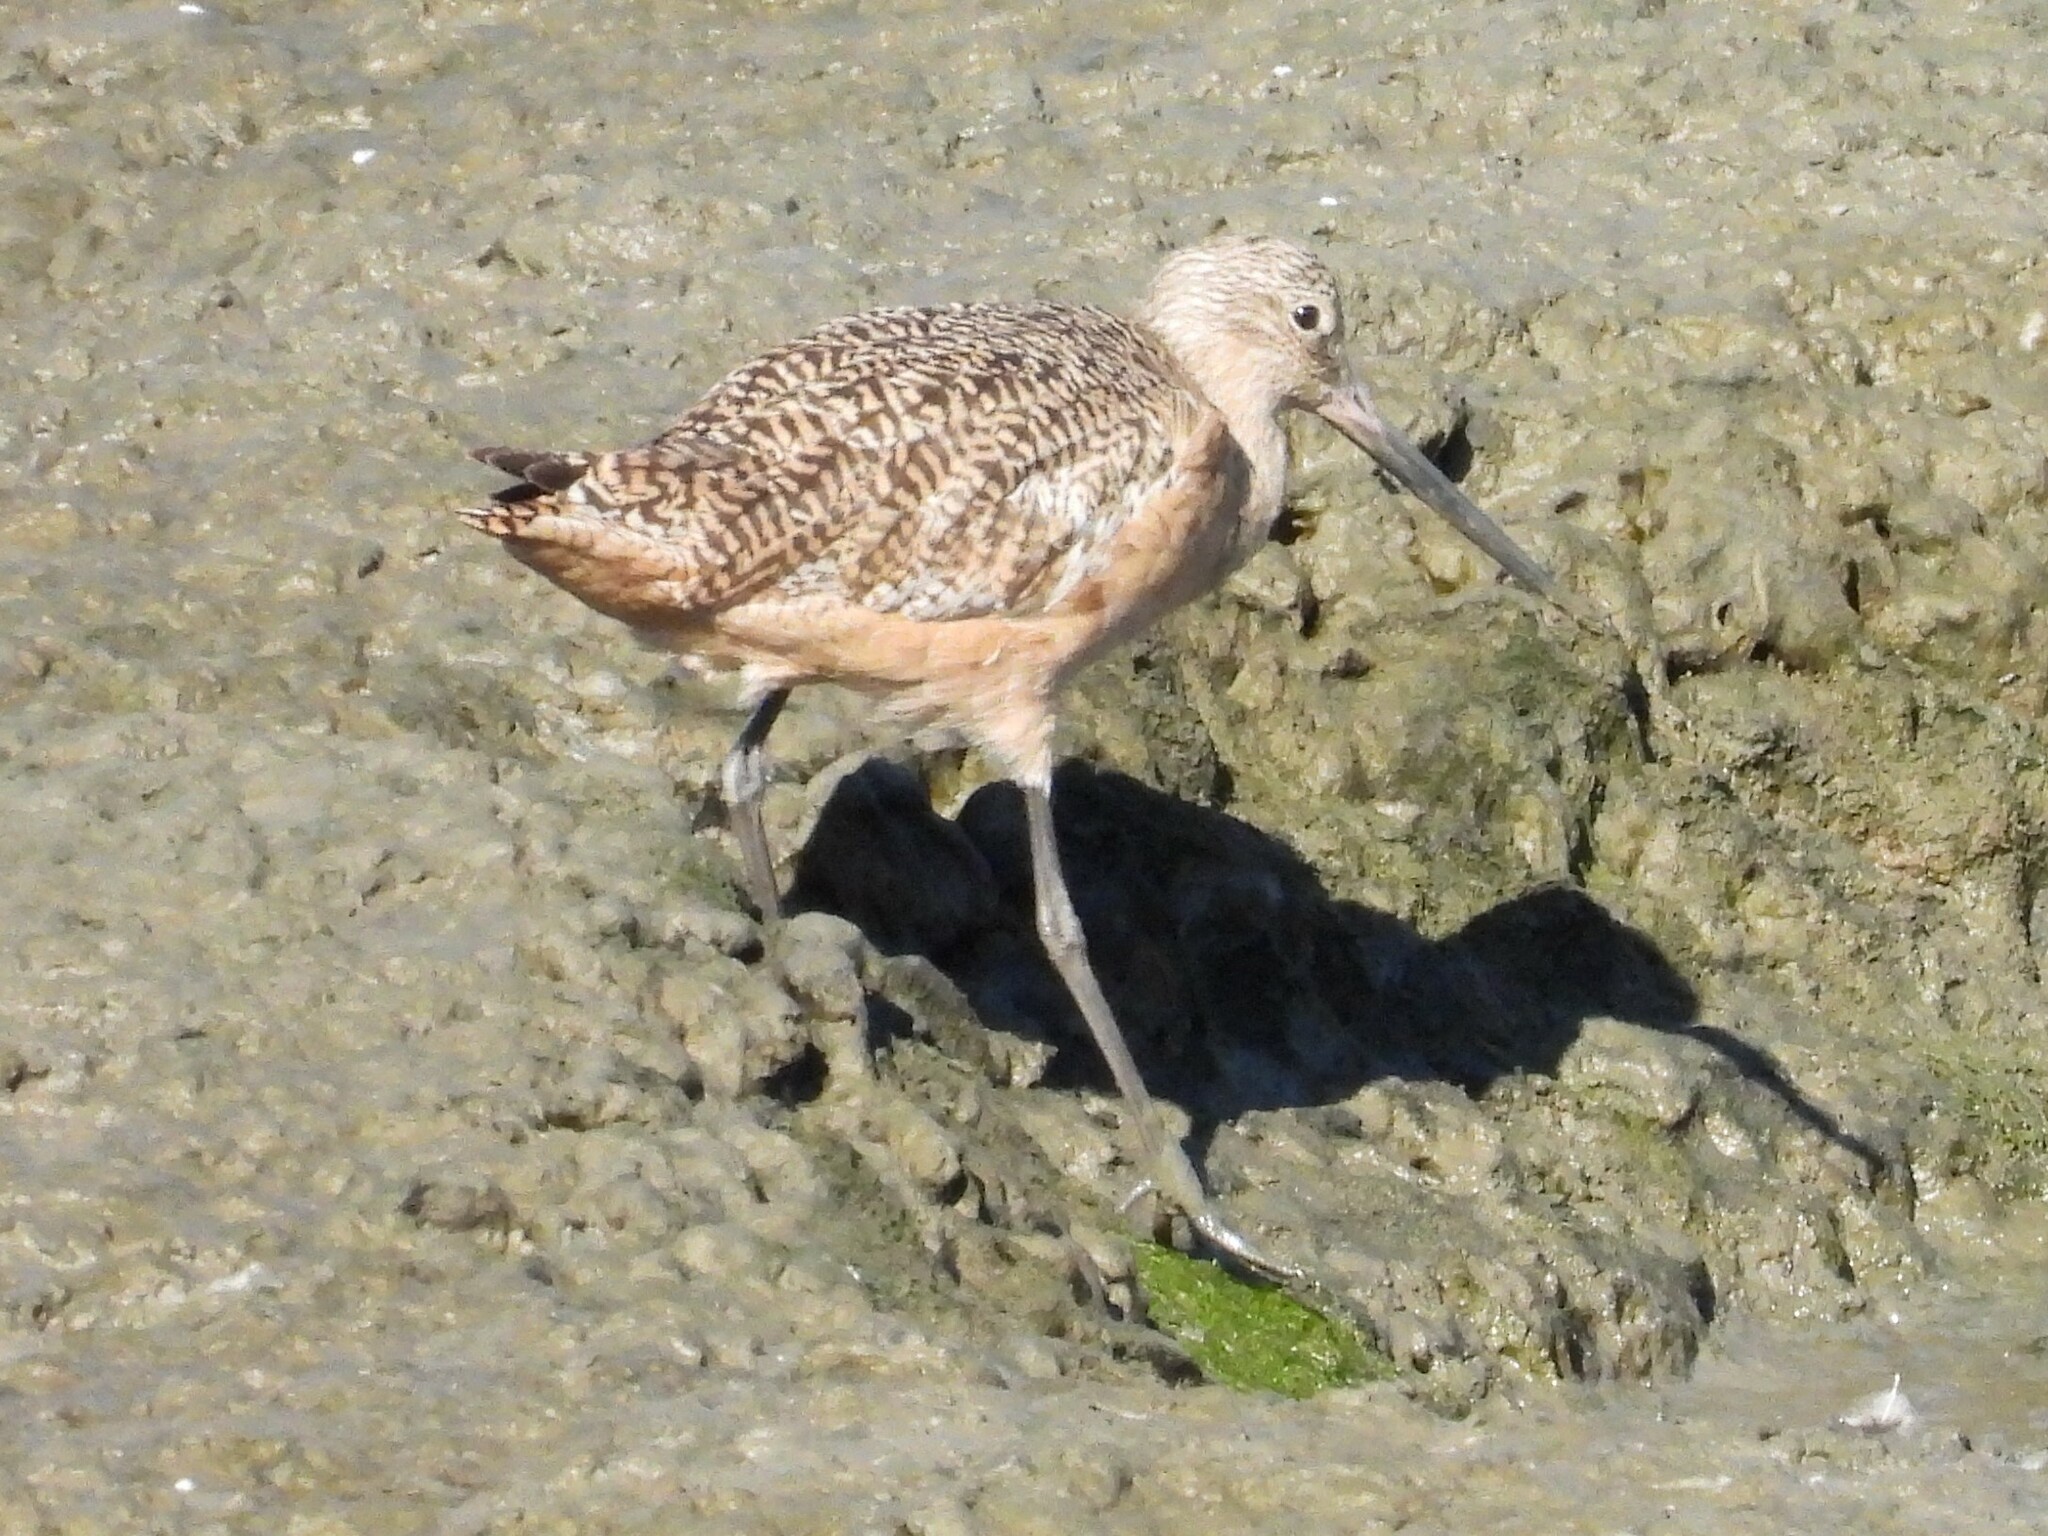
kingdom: Animalia
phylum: Chordata
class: Aves
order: Charadriiformes
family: Scolopacidae
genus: Limosa
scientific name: Limosa fedoa
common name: Marbled godwit
